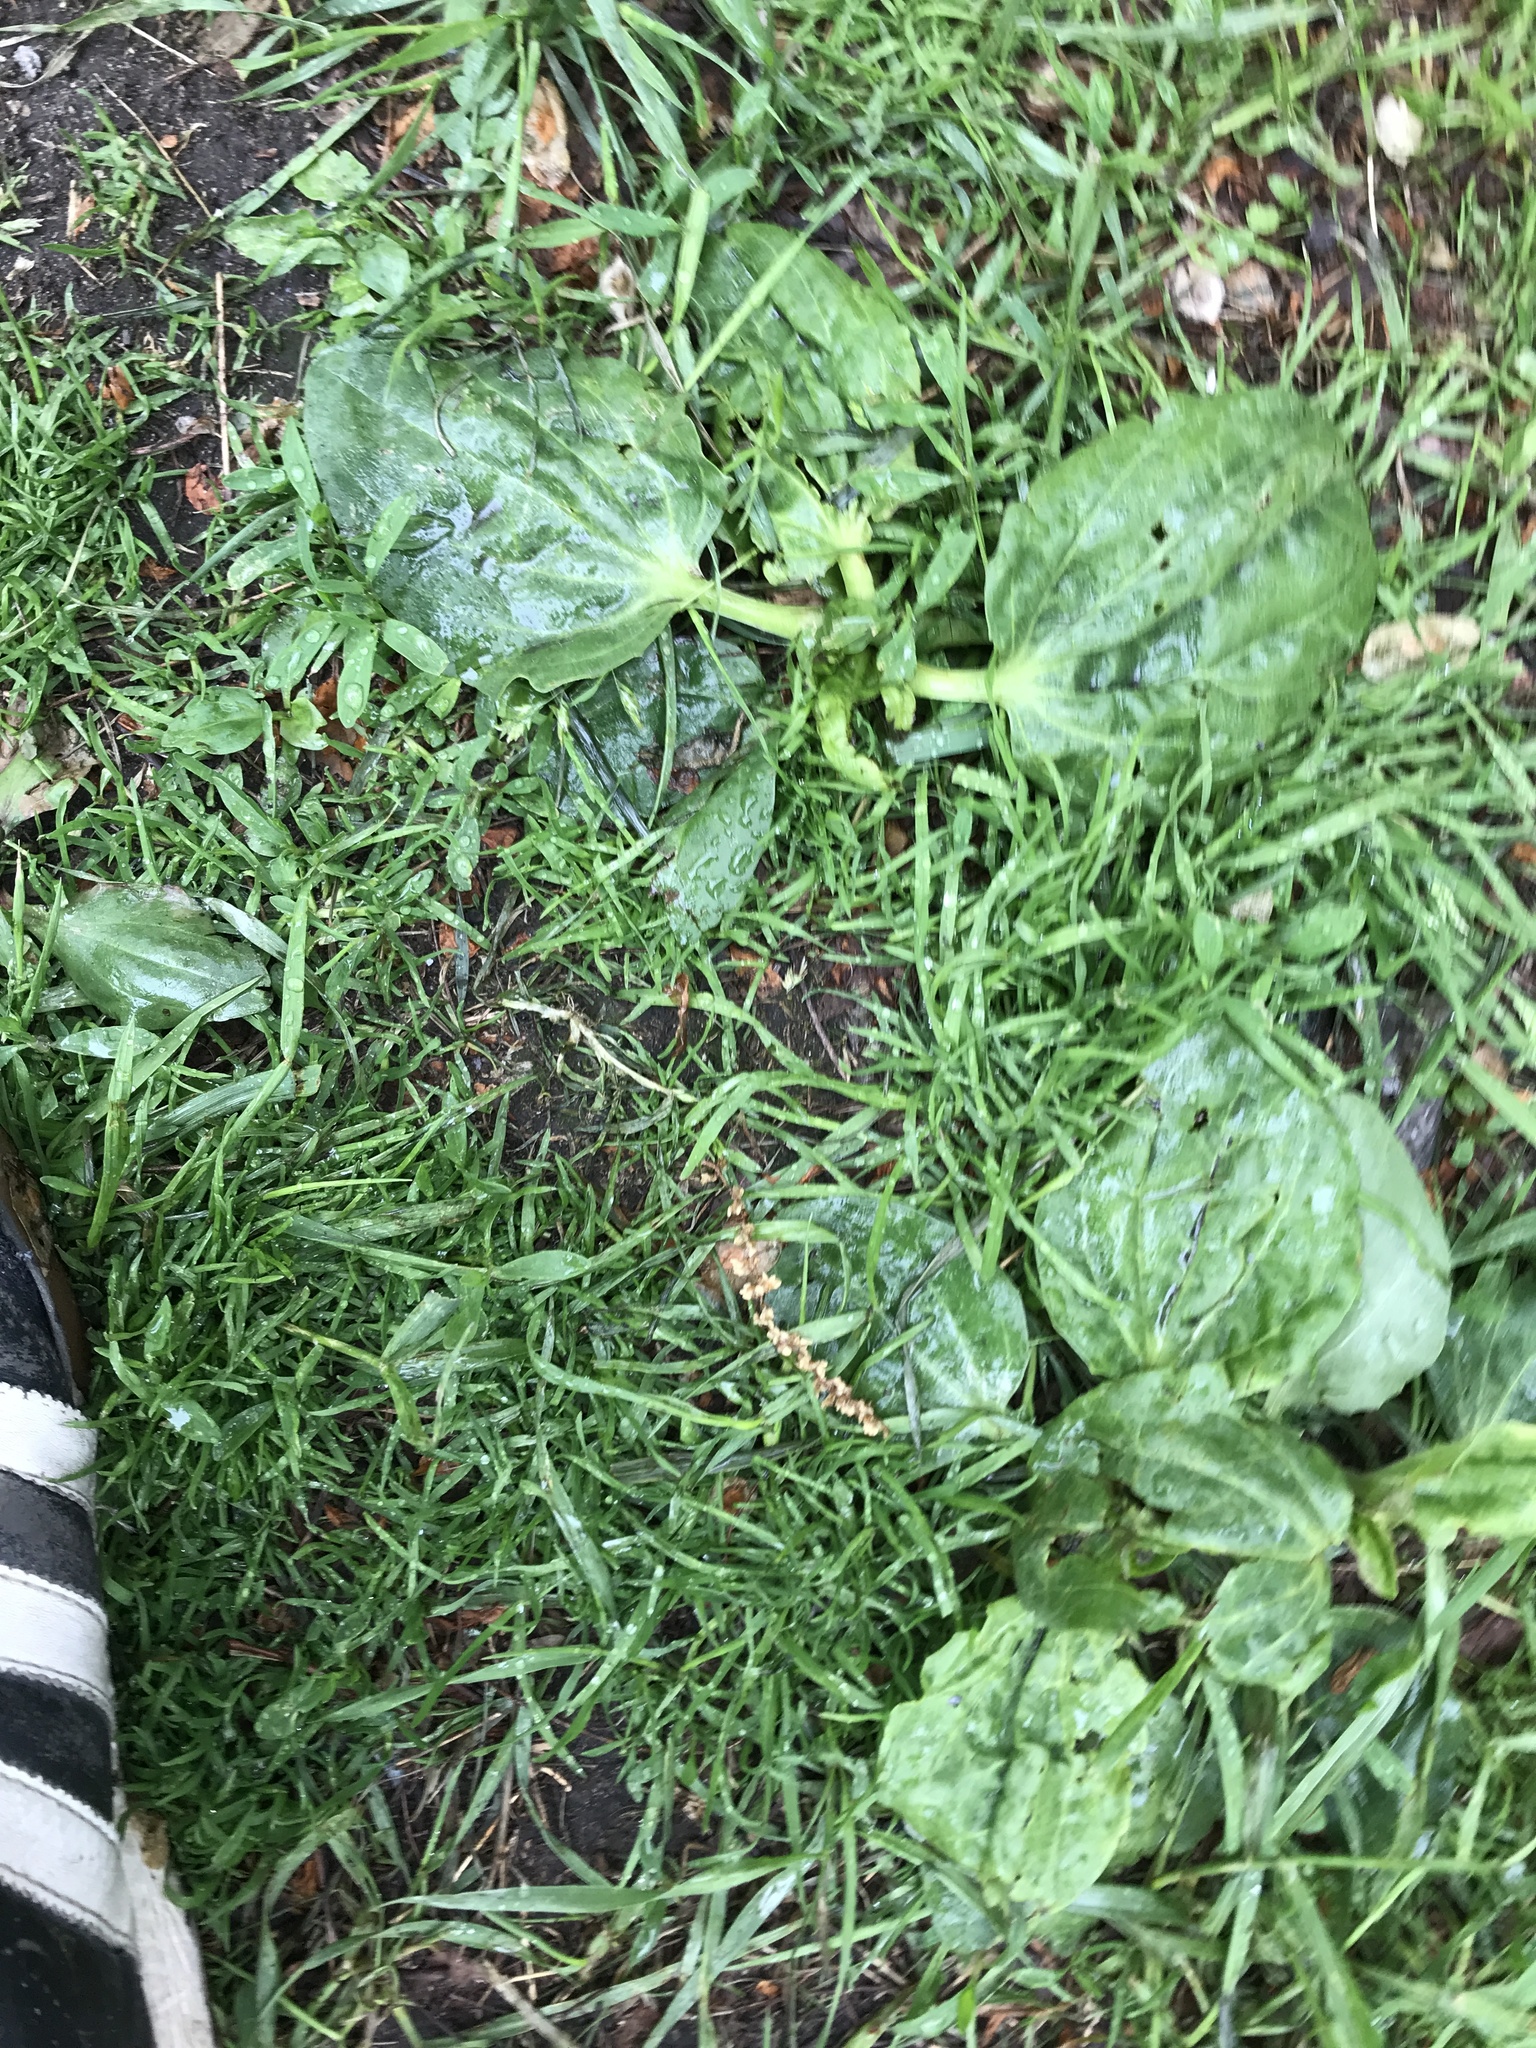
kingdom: Plantae
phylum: Tracheophyta
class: Magnoliopsida
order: Lamiales
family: Plantaginaceae
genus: Plantago
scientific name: Plantago major
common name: Common plantain
